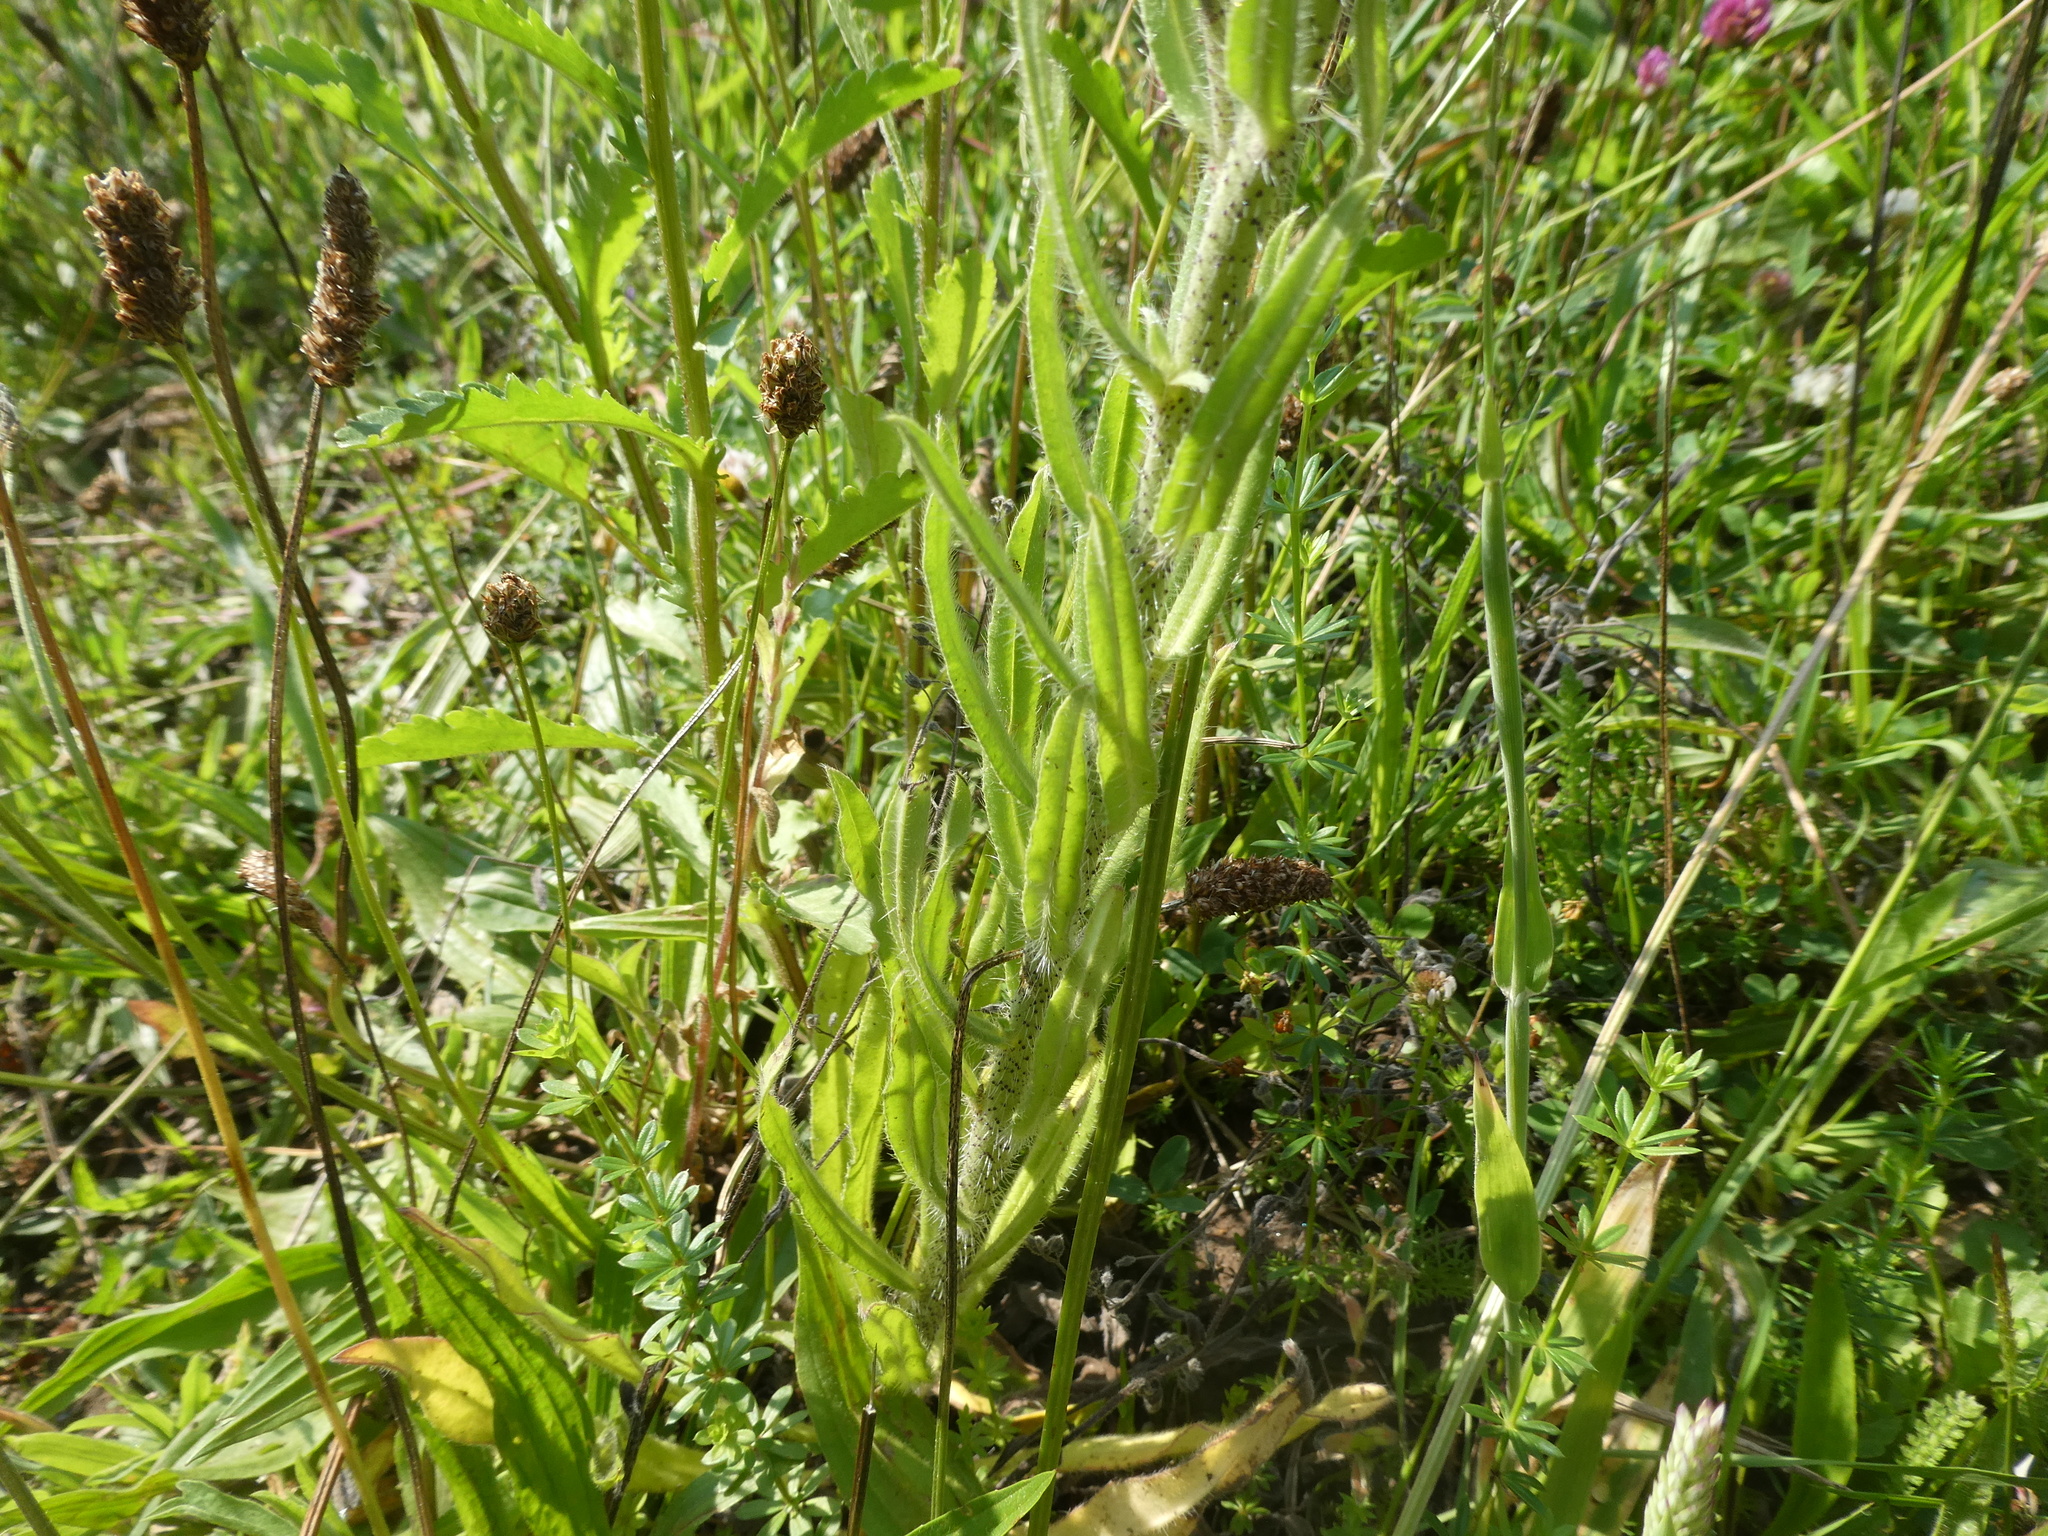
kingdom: Plantae
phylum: Tracheophyta
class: Magnoliopsida
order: Boraginales
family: Boraginaceae
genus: Echium
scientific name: Echium vulgare
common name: Common viper's bugloss
